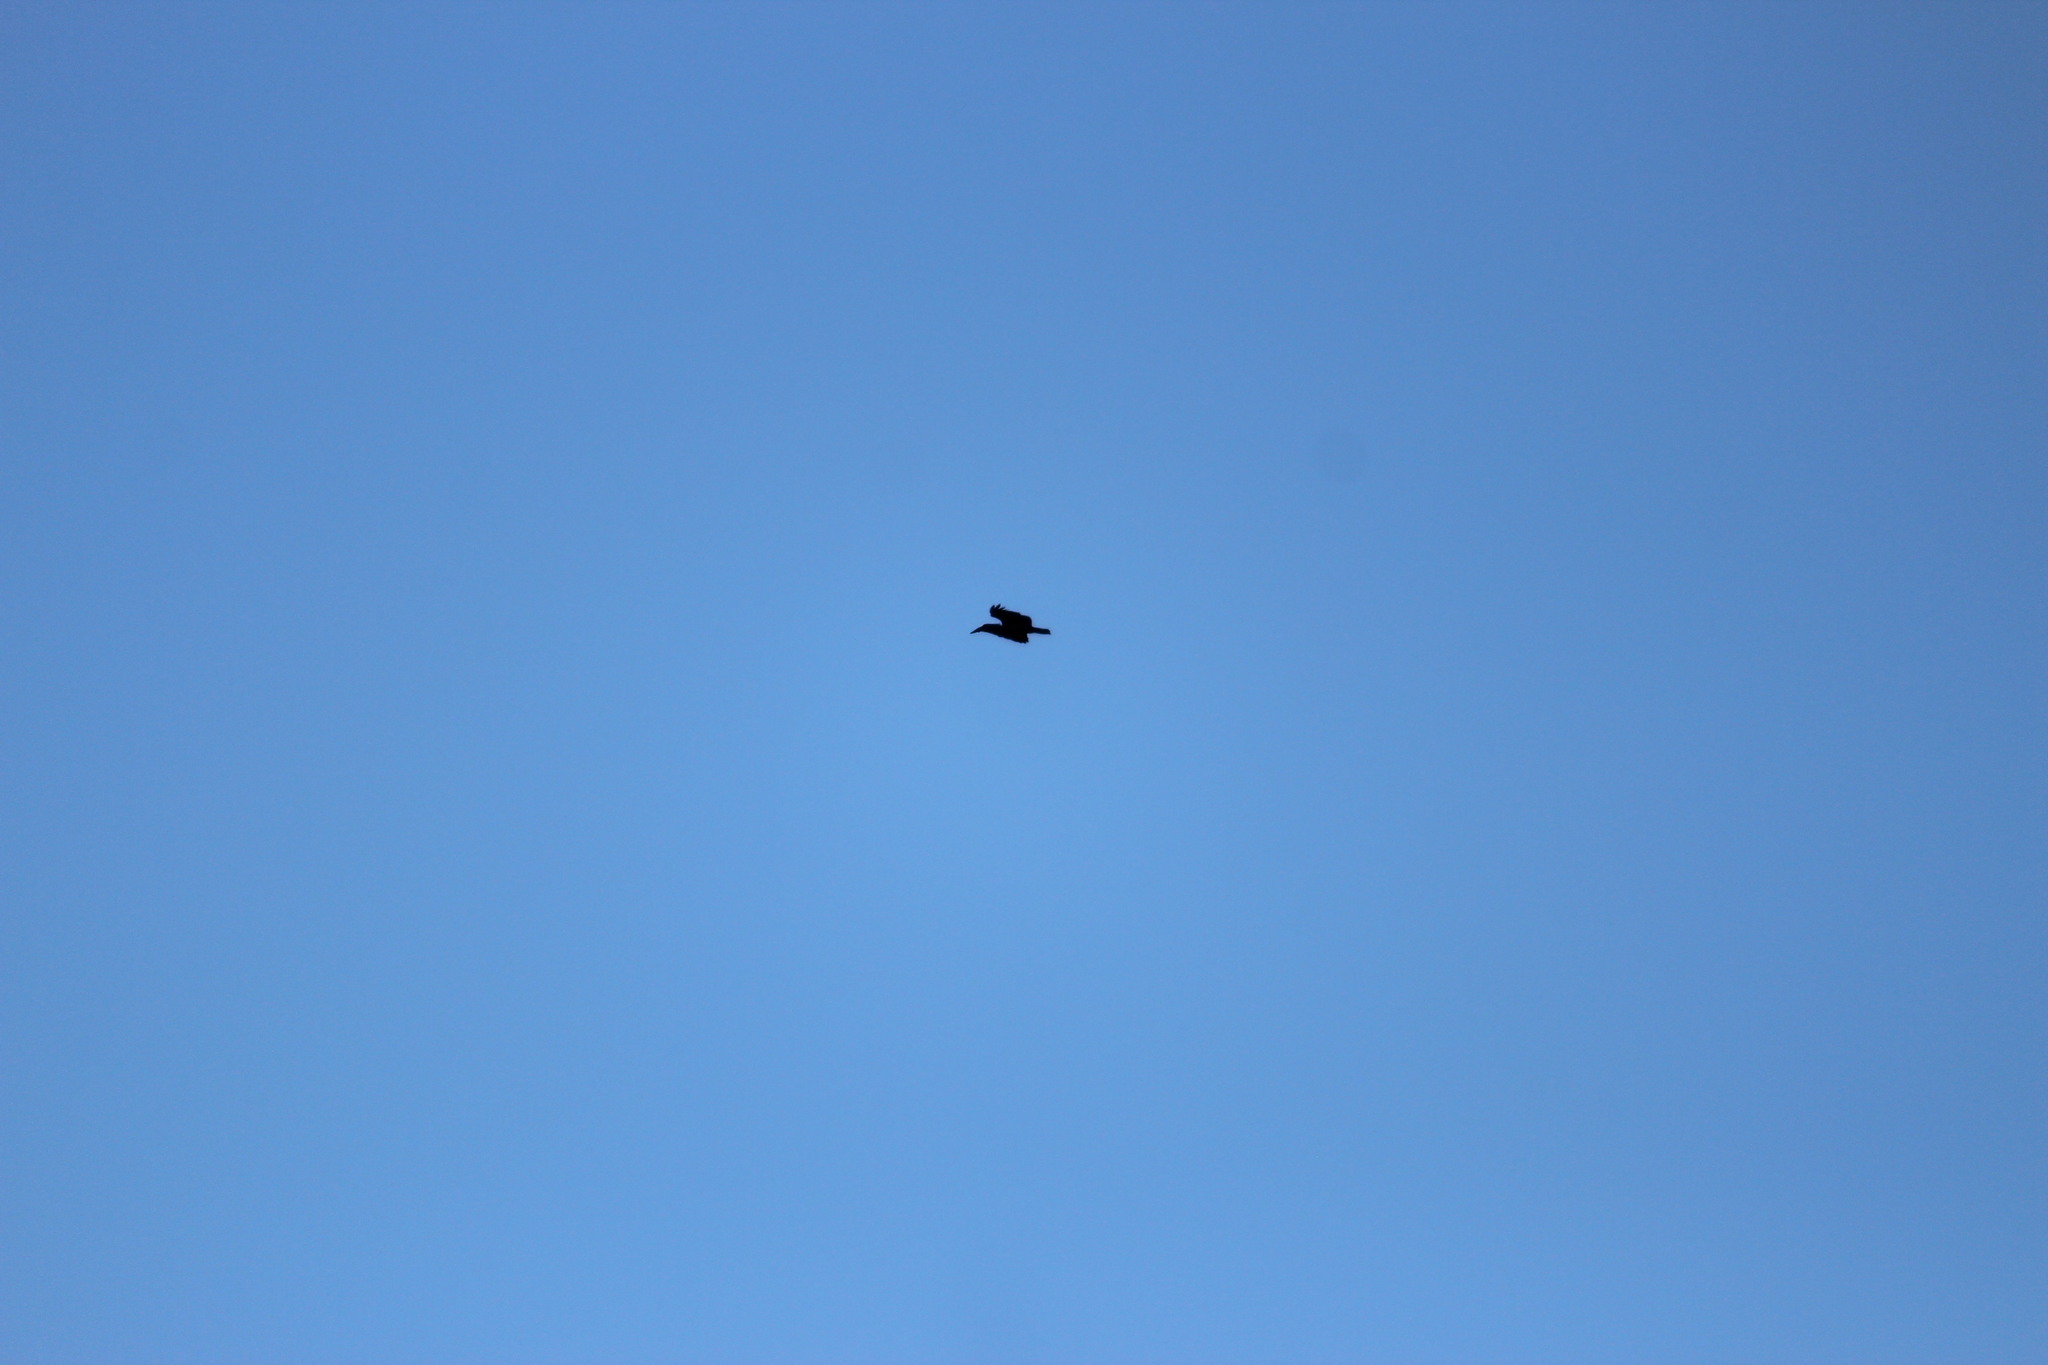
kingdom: Animalia
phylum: Chordata
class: Aves
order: Pelecaniformes
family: Scopidae
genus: Scopus
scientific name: Scopus umbretta
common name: Hamerkop
